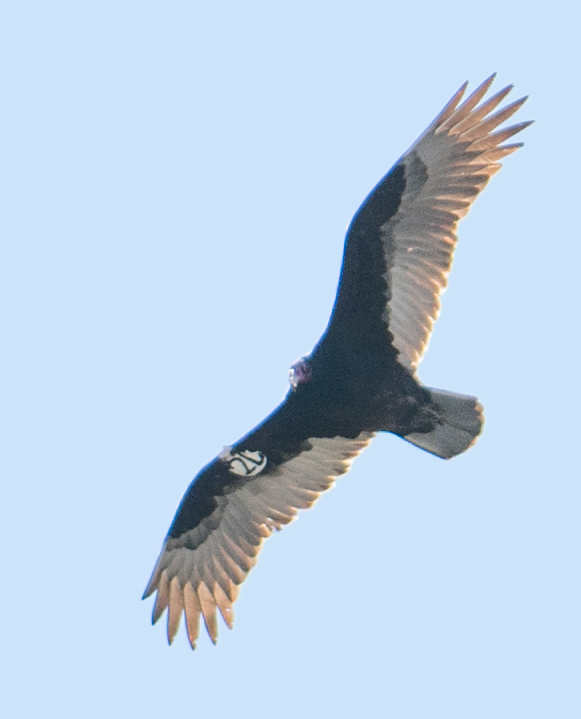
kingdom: Animalia
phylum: Chordata
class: Aves
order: Accipitriformes
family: Cathartidae
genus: Cathartes
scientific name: Cathartes aura
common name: Turkey vulture
